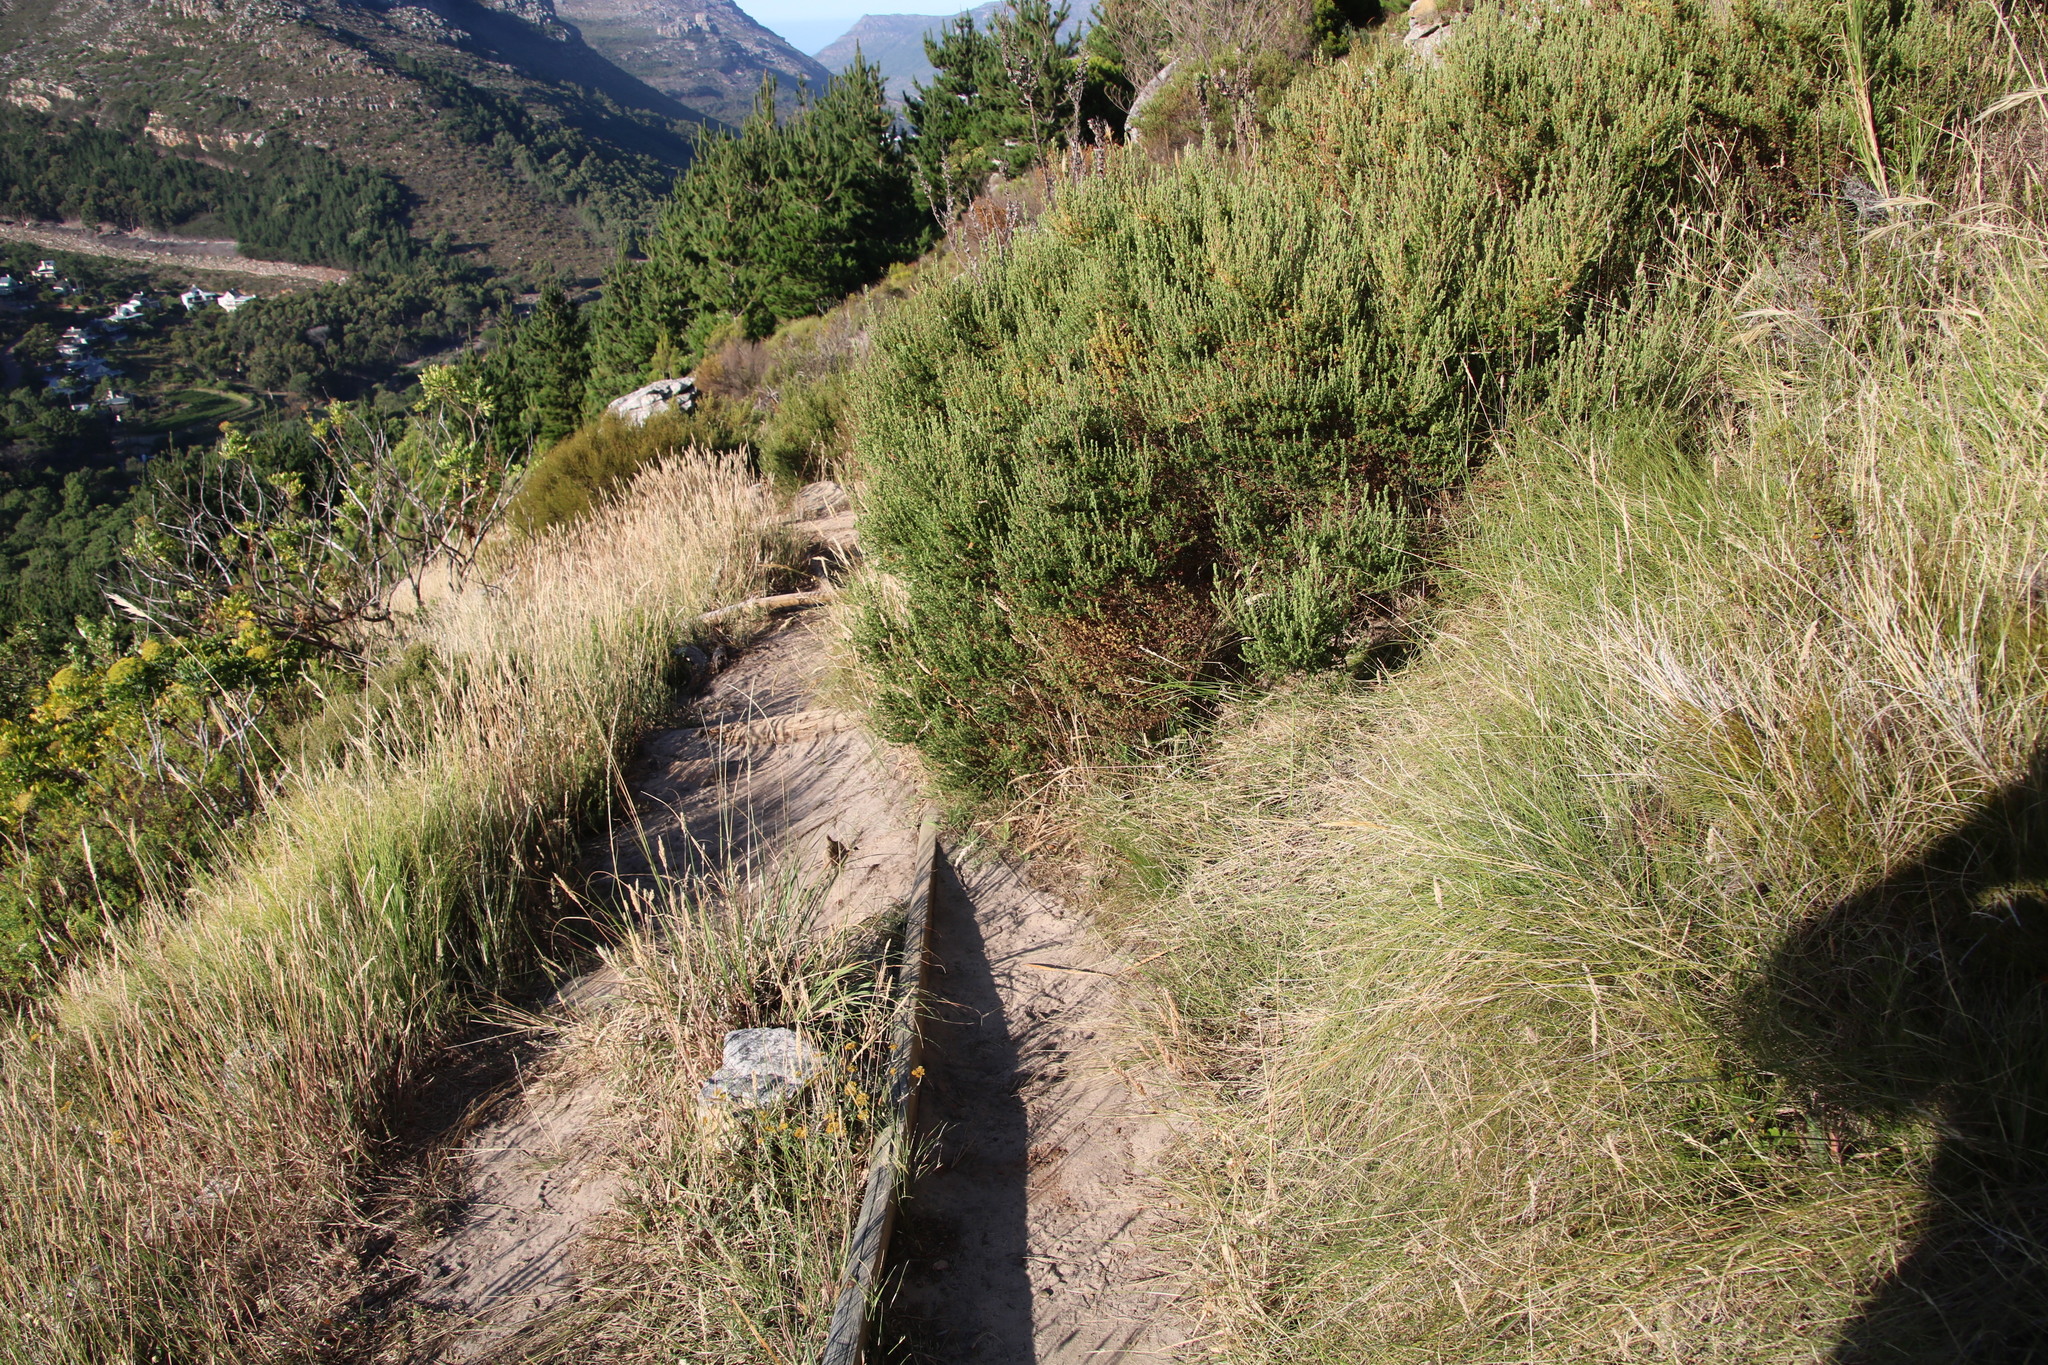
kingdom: Plantae
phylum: Tracheophyta
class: Magnoliopsida
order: Rosales
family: Rosaceae
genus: Cliffortia
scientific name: Cliffortia polygonifolia
